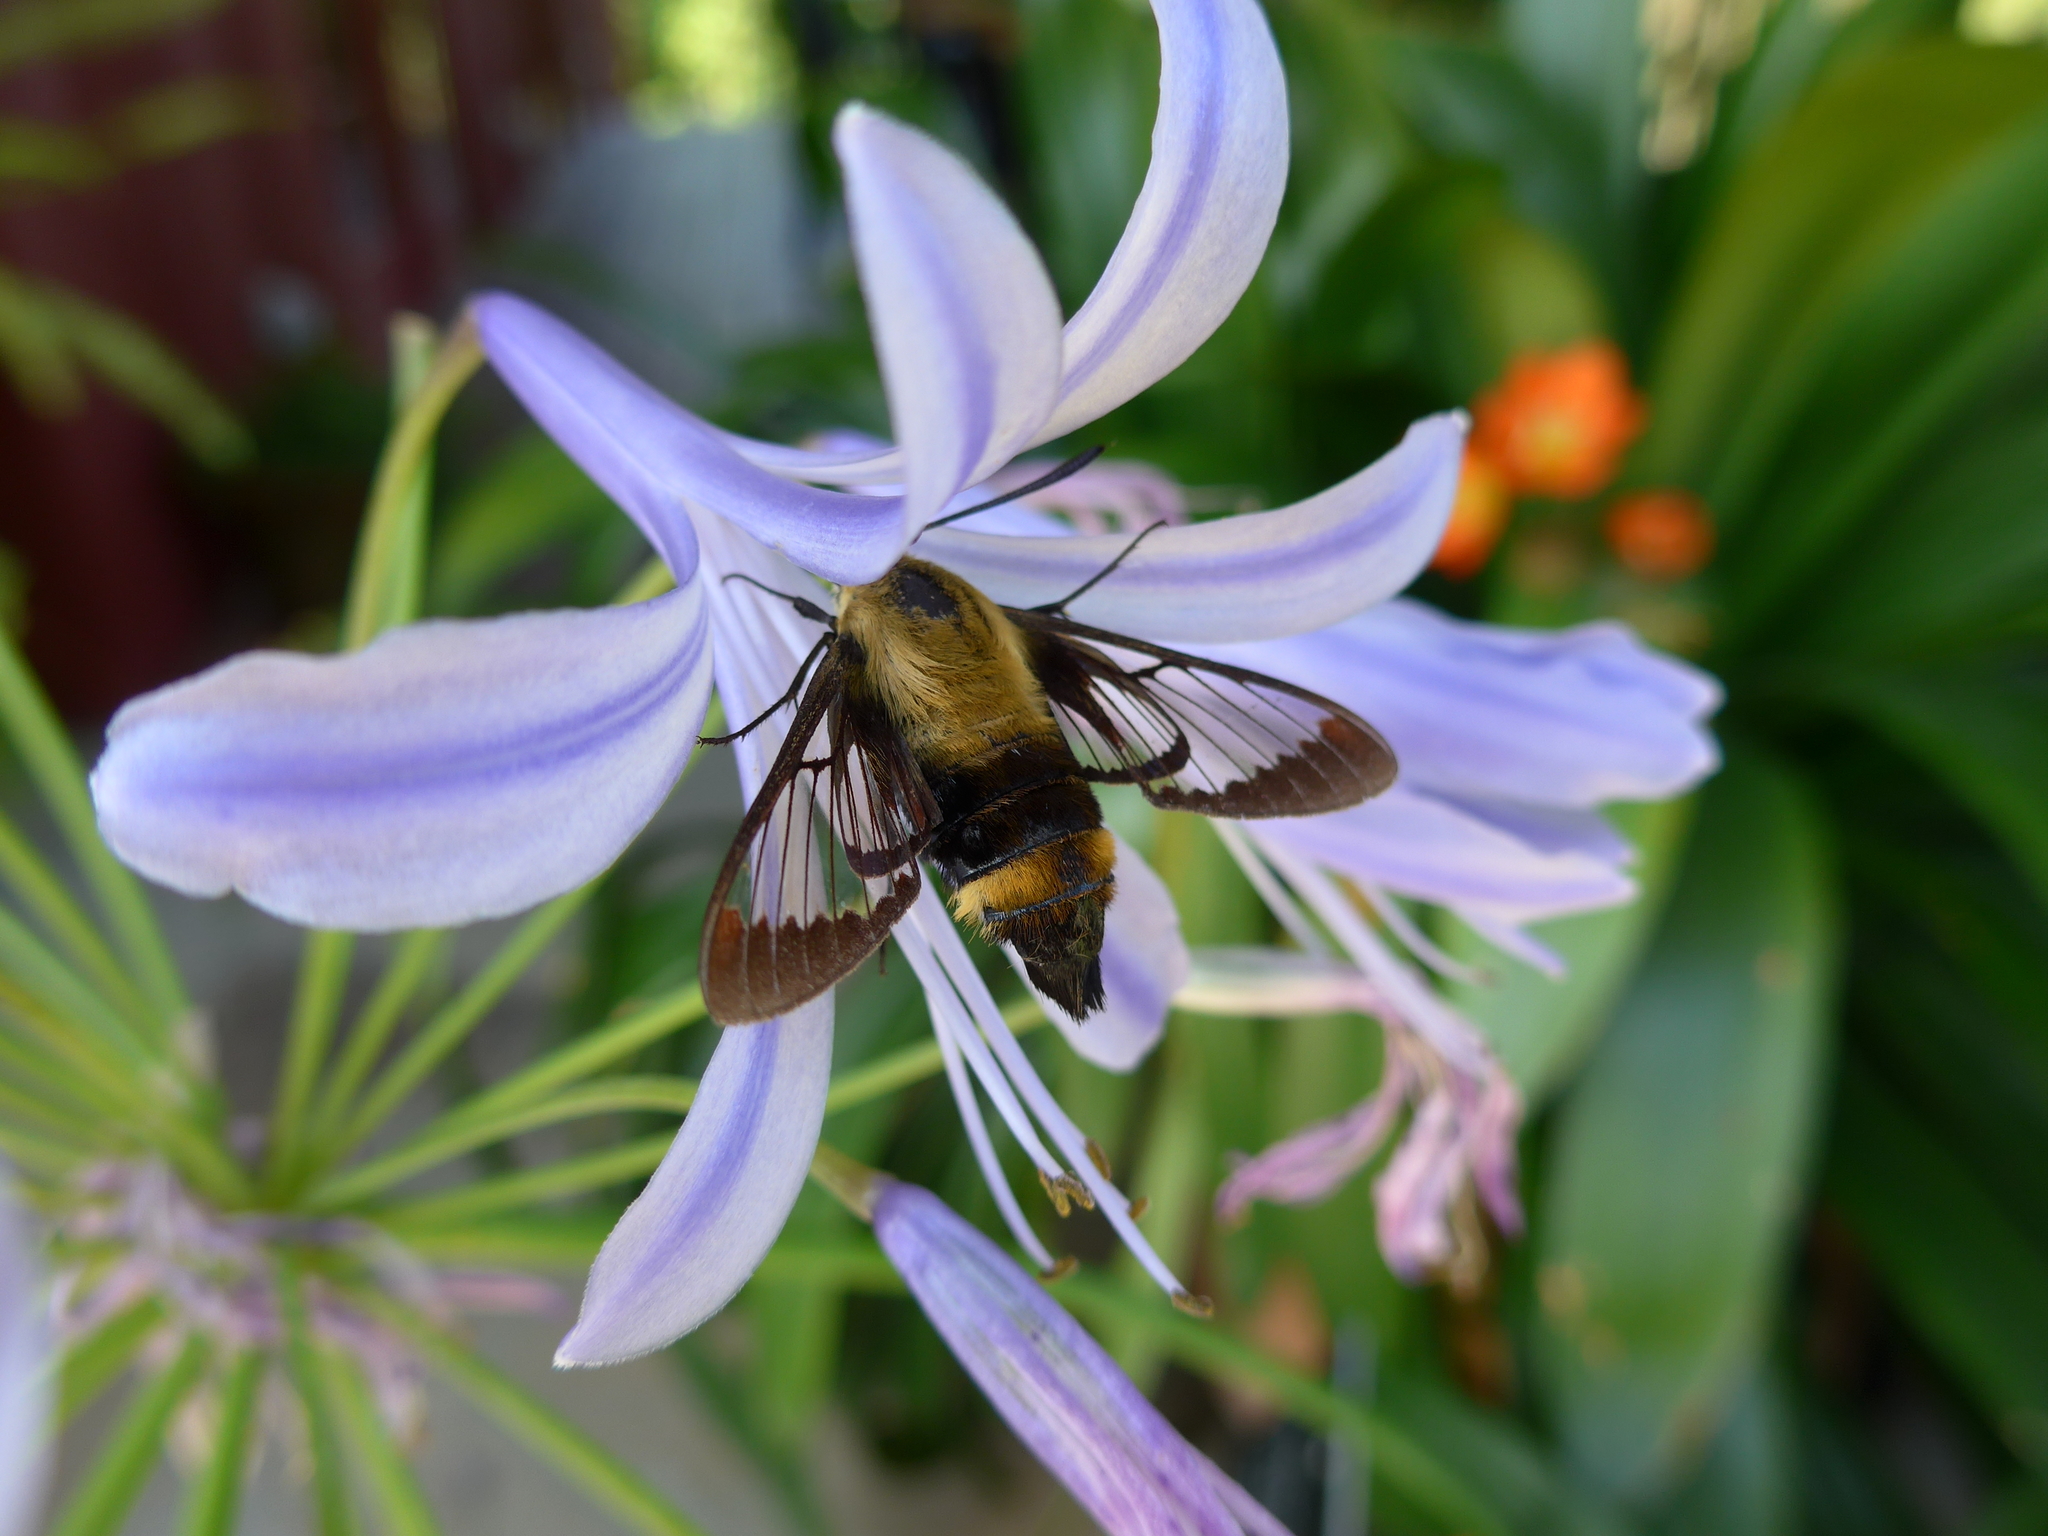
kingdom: Animalia
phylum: Arthropoda
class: Insecta
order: Lepidoptera
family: Sphingidae
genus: Hemaris
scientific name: Hemaris diffinis
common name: Bumblebee moth
